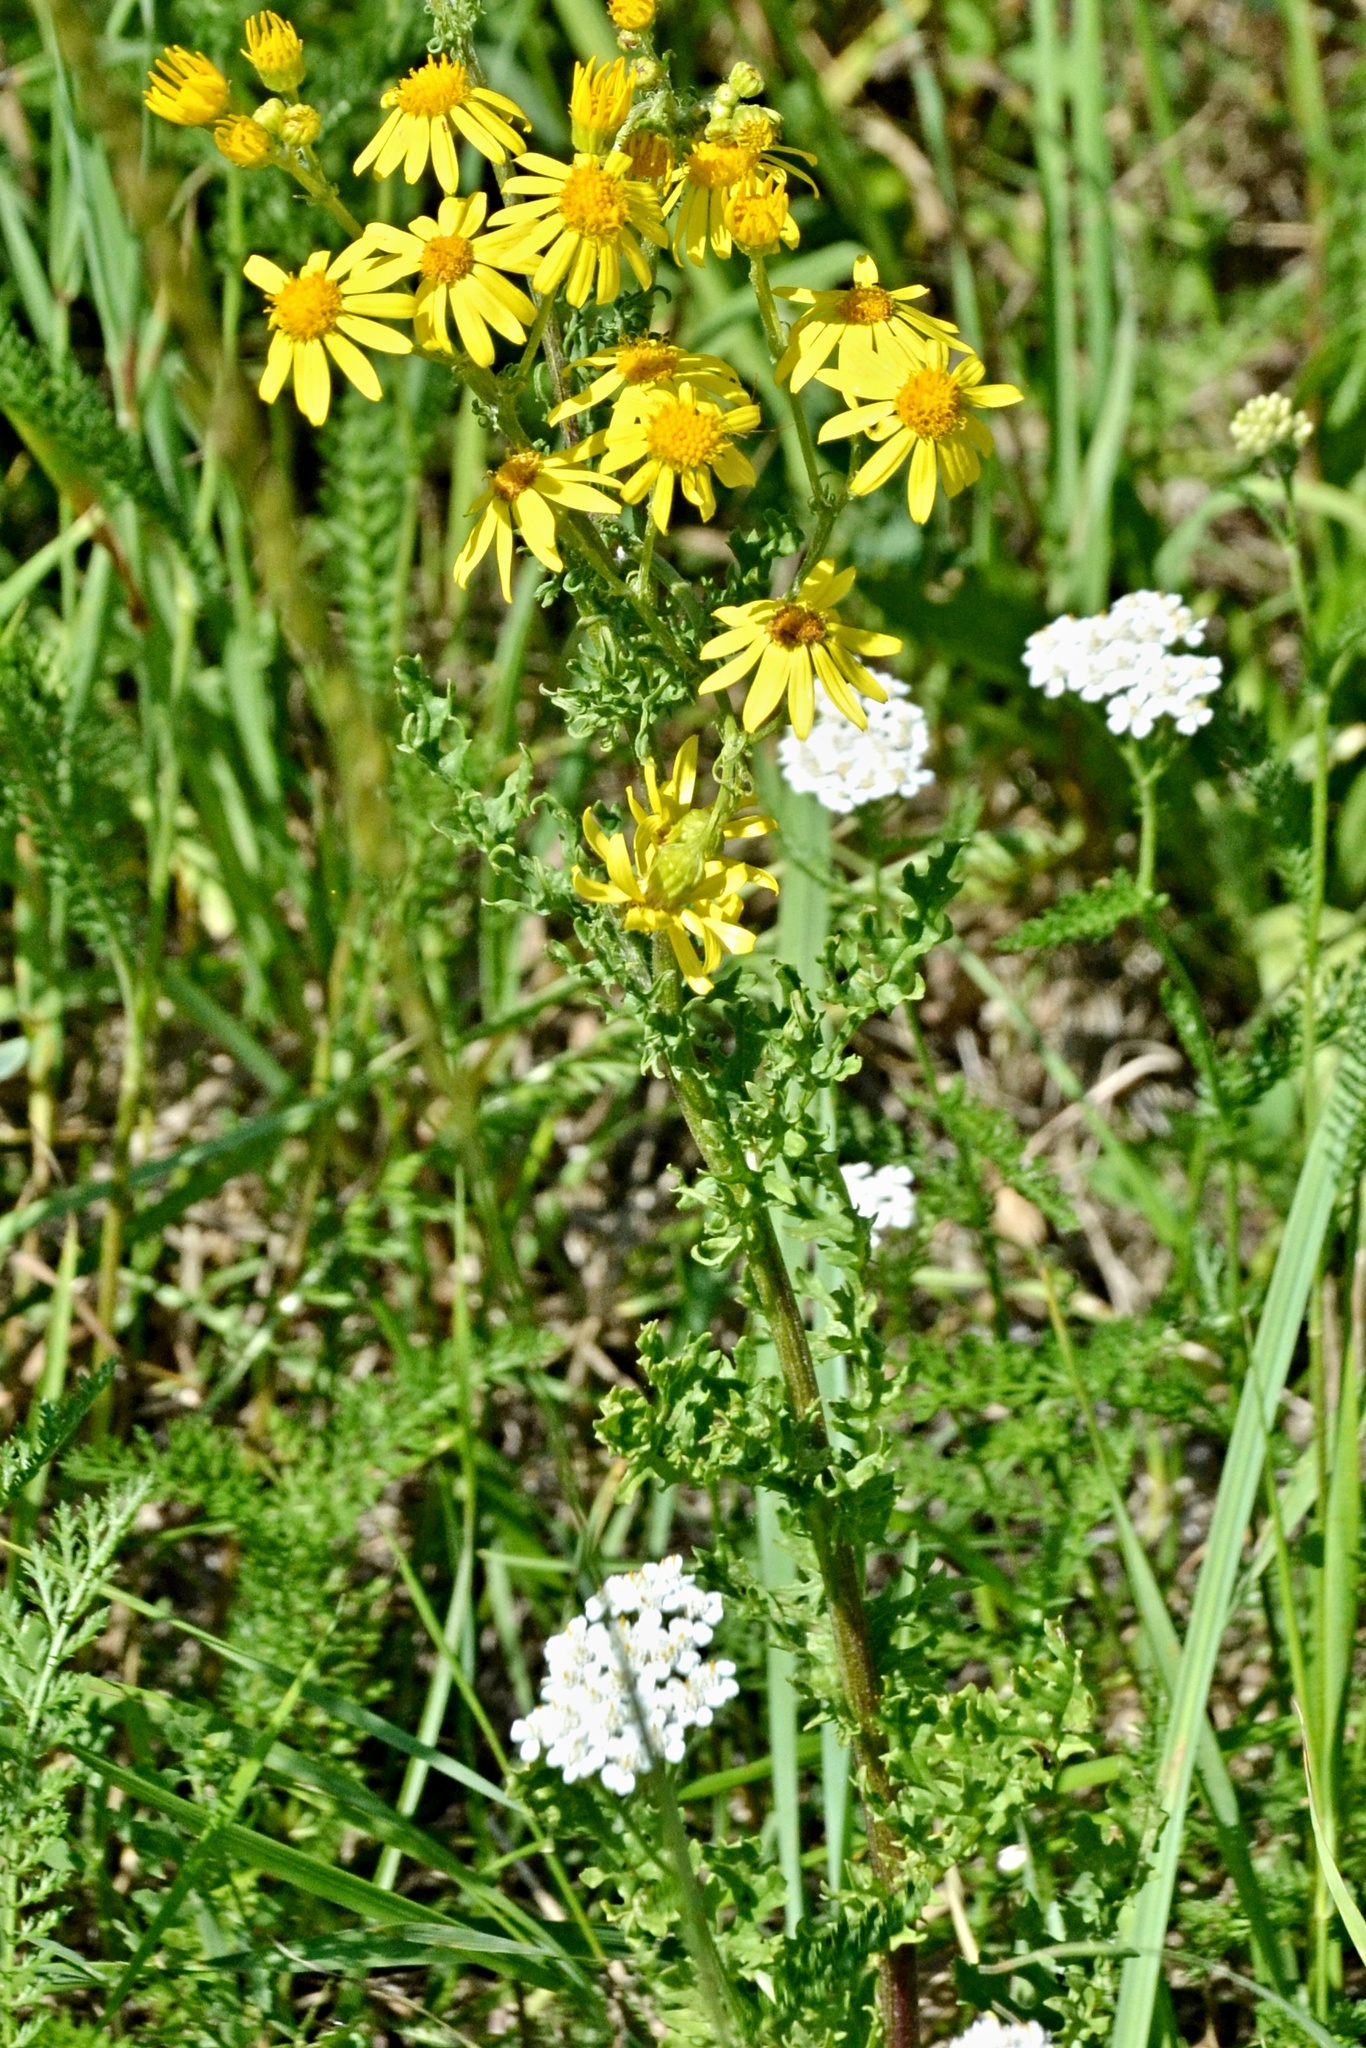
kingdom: Plantae
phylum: Tracheophyta
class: Magnoliopsida
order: Asterales
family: Asteraceae
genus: Jacobaea
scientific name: Jacobaea vulgaris
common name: Stinking willie
